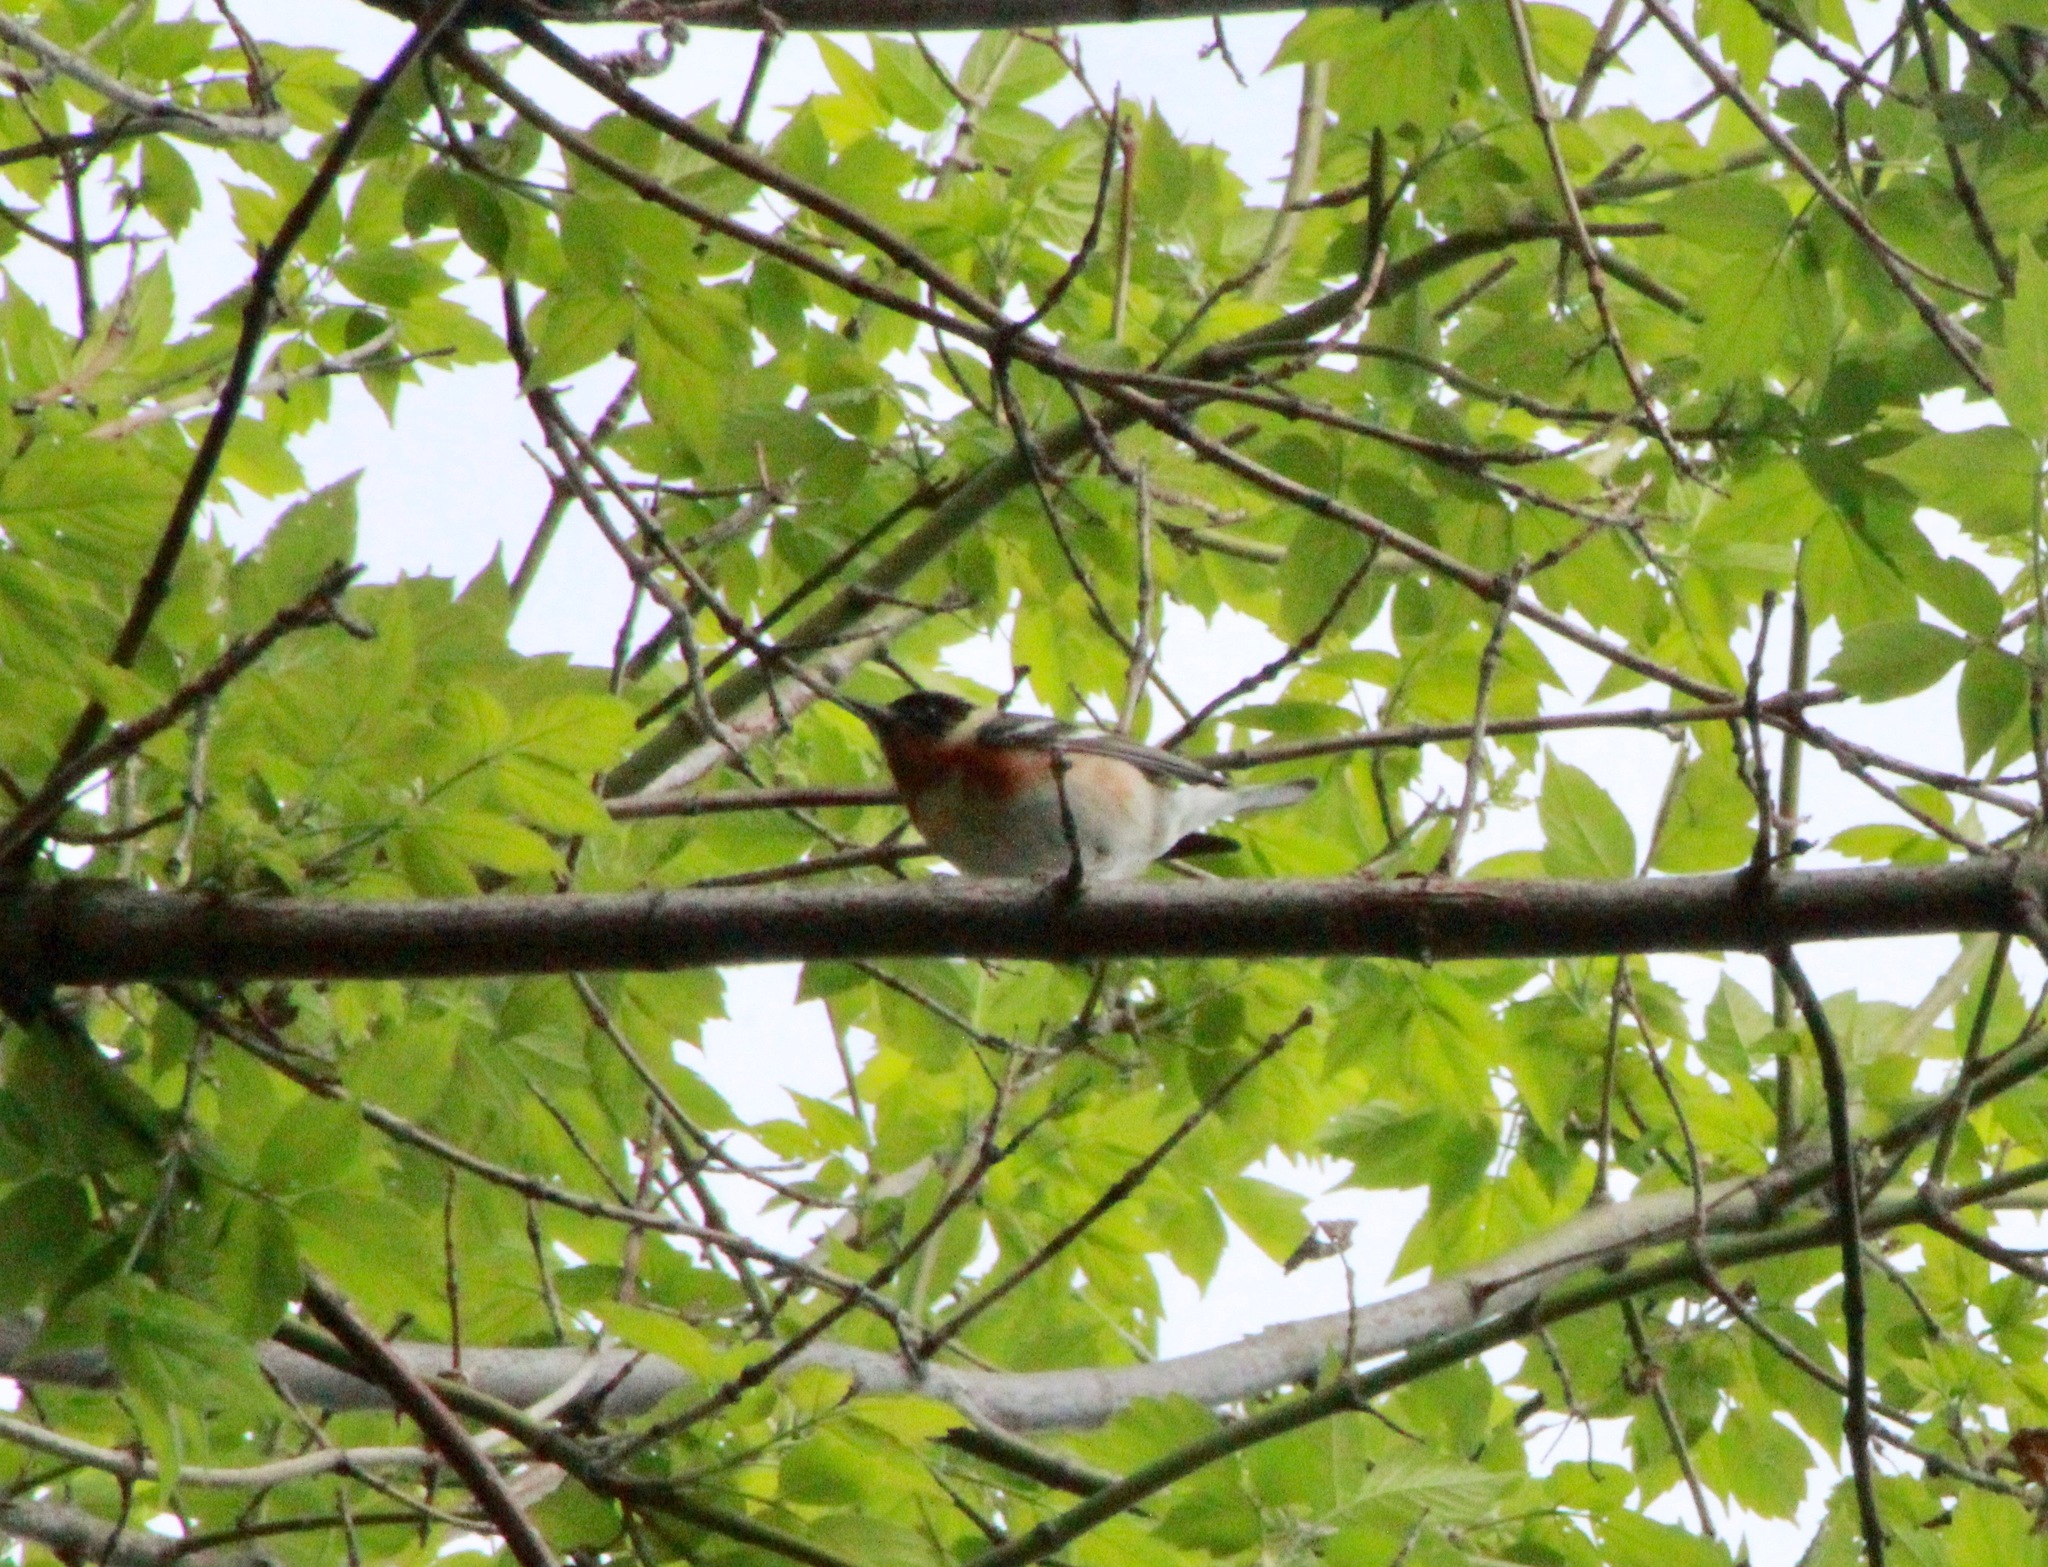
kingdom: Animalia
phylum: Chordata
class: Aves
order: Passeriformes
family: Parulidae
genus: Setophaga
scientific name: Setophaga castanea
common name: Bay-breasted warbler
